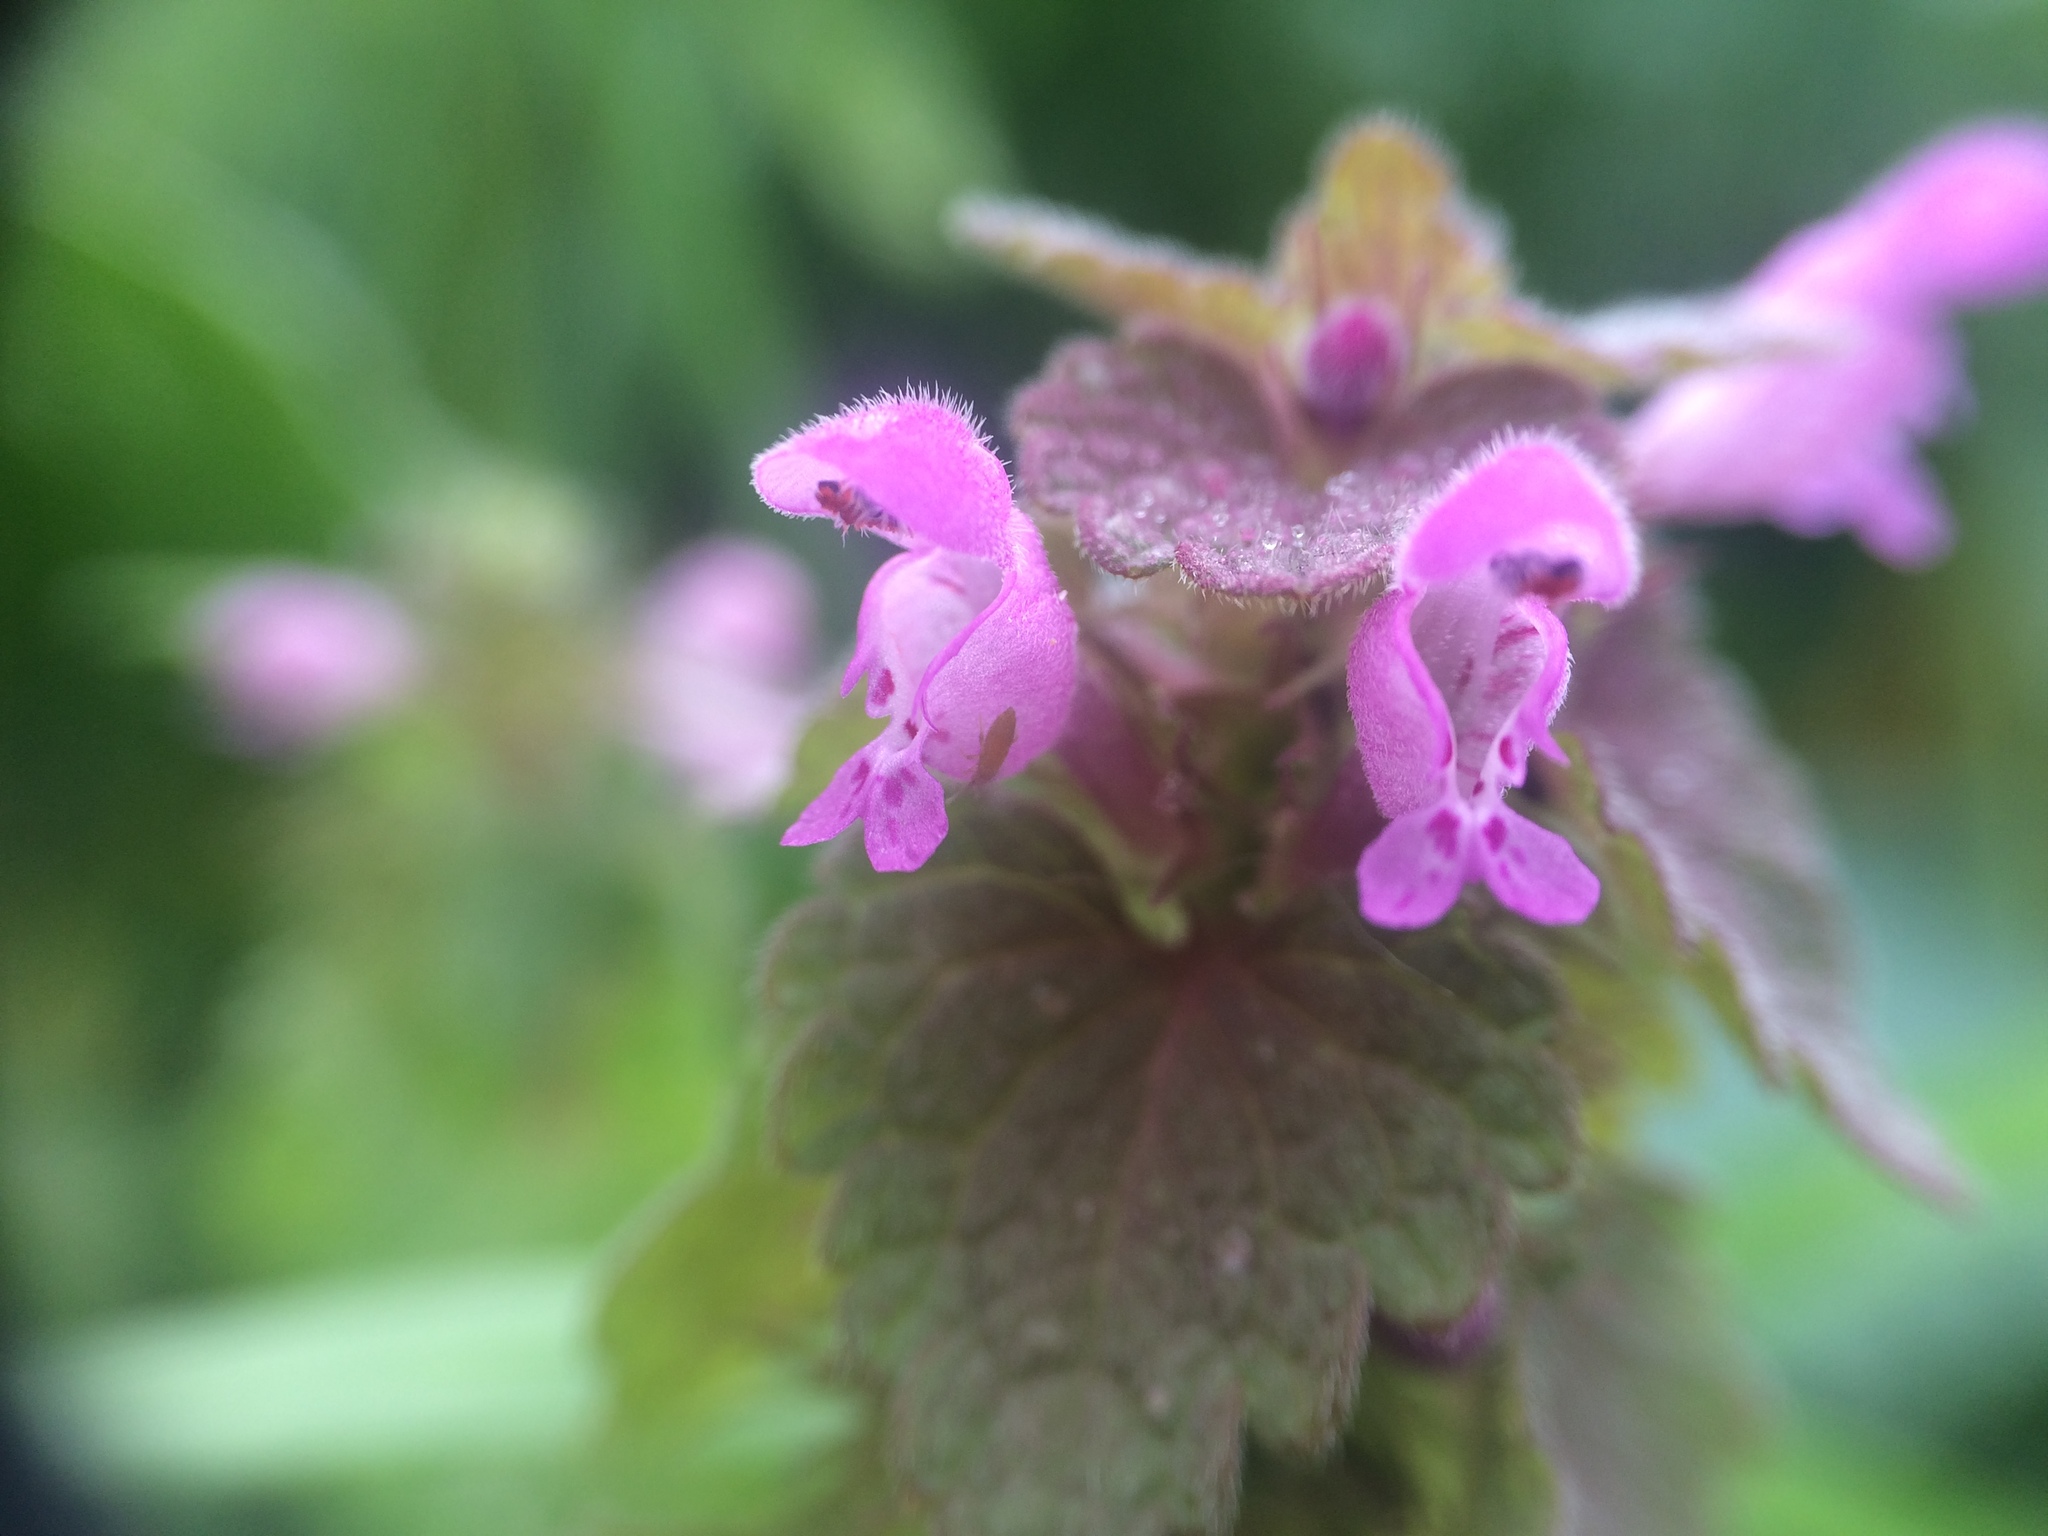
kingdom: Plantae
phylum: Tracheophyta
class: Magnoliopsida
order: Lamiales
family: Lamiaceae
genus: Lamium
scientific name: Lamium purpureum
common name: Red dead-nettle
